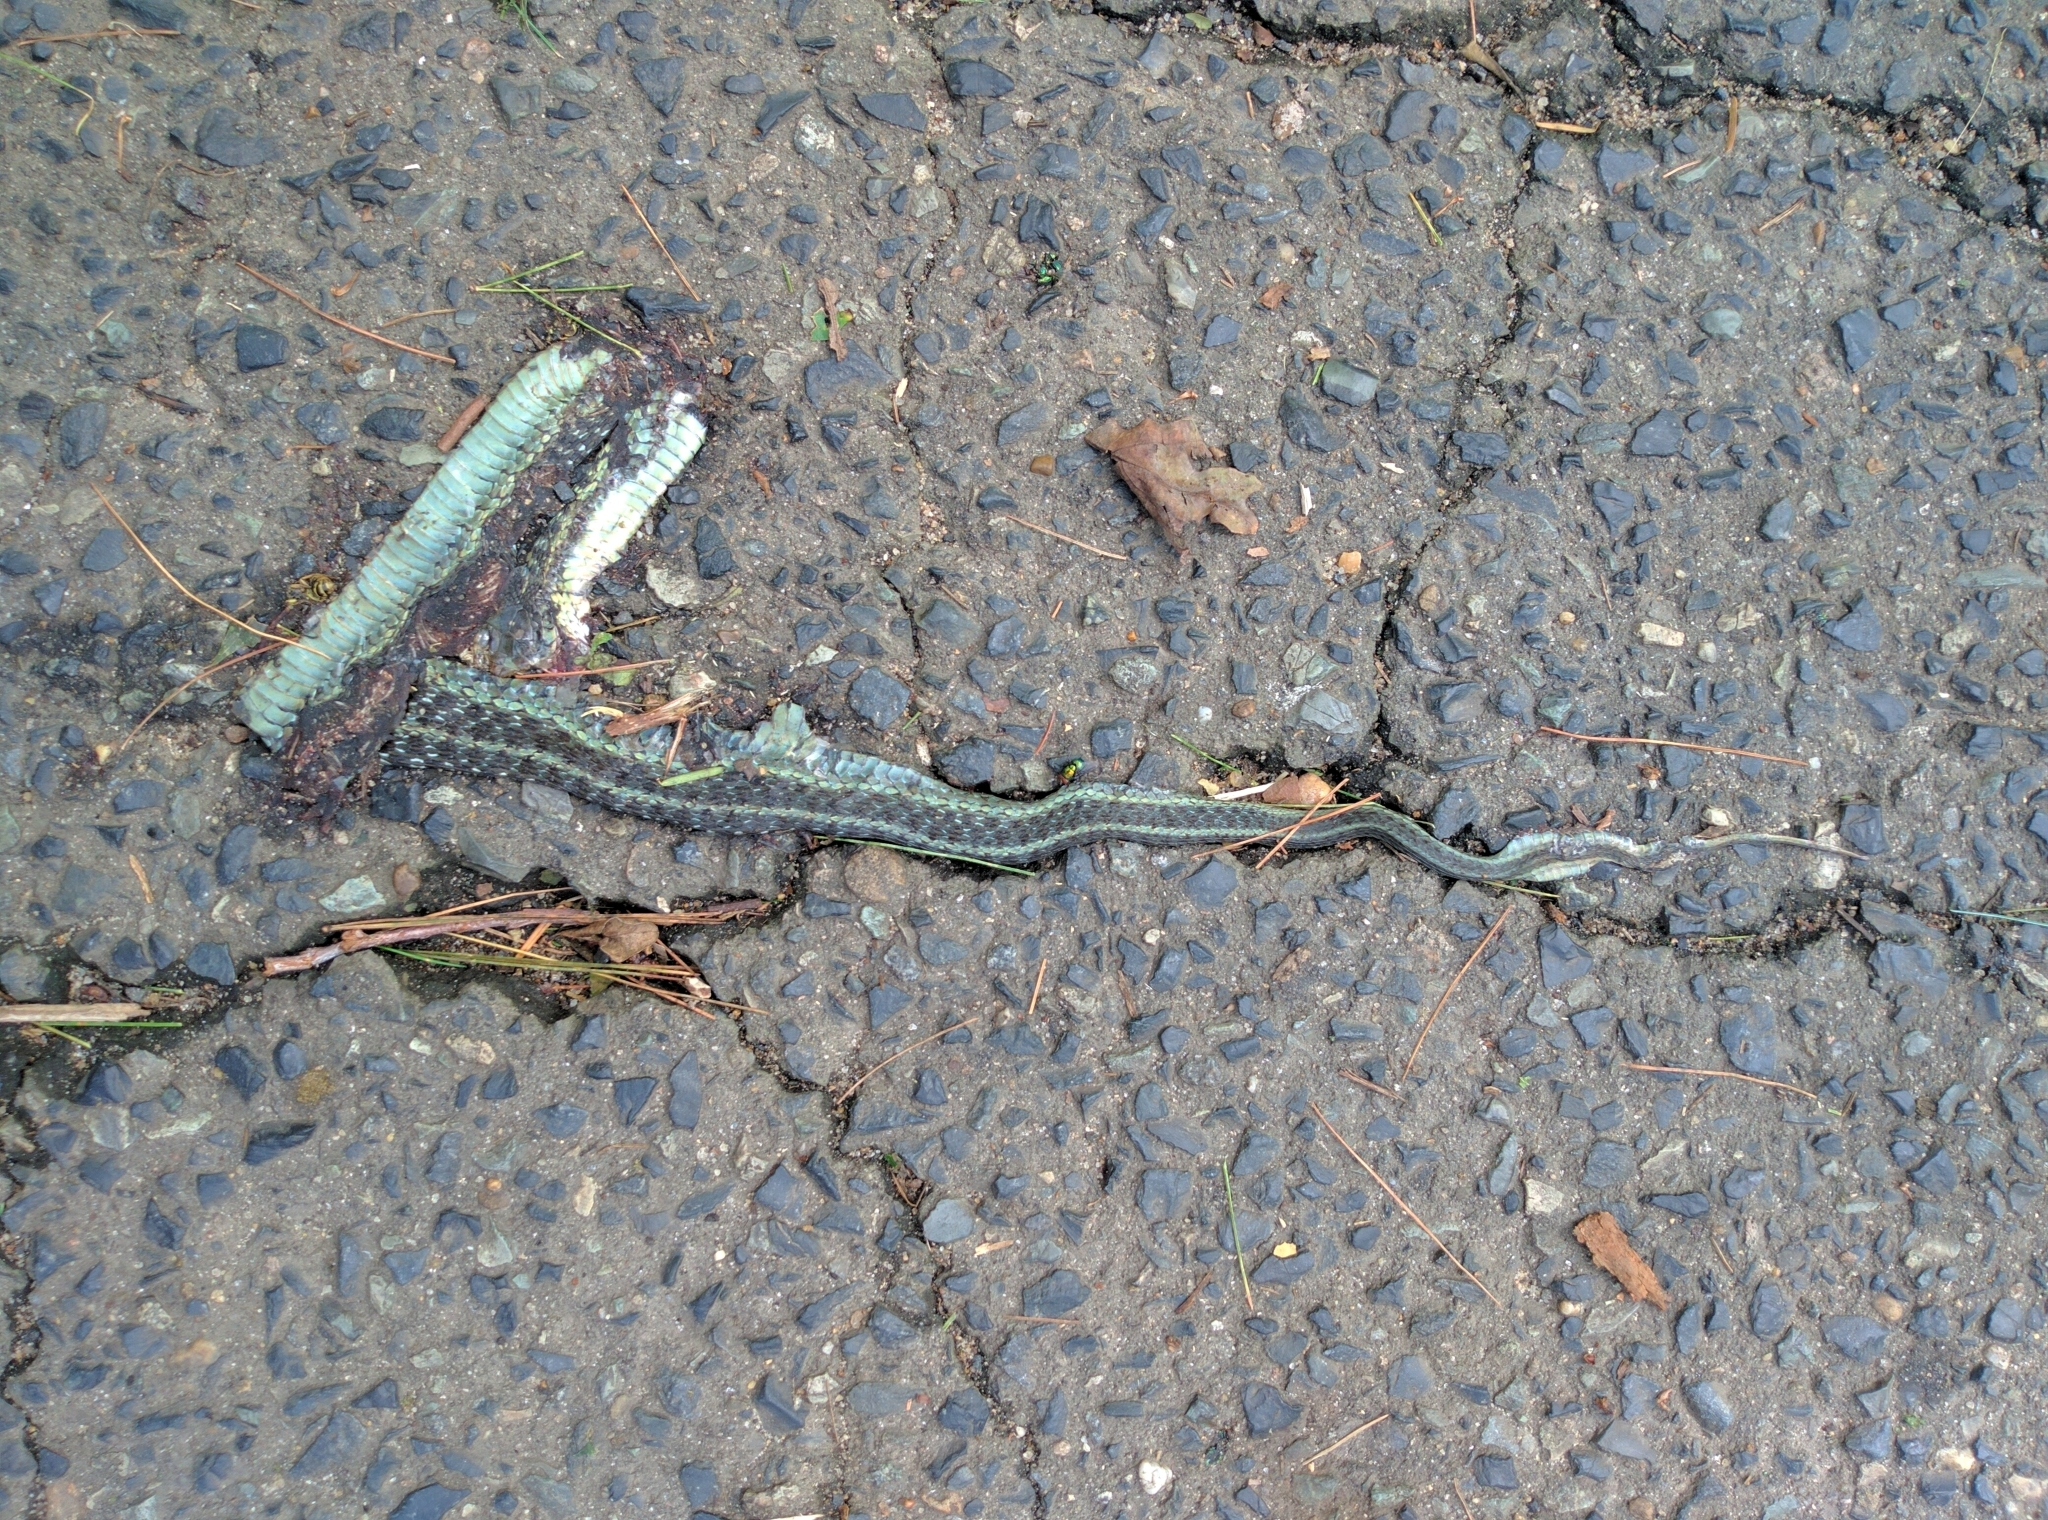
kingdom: Animalia
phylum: Chordata
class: Squamata
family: Colubridae
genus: Thamnophis
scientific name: Thamnophis sirtalis
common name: Common garter snake
